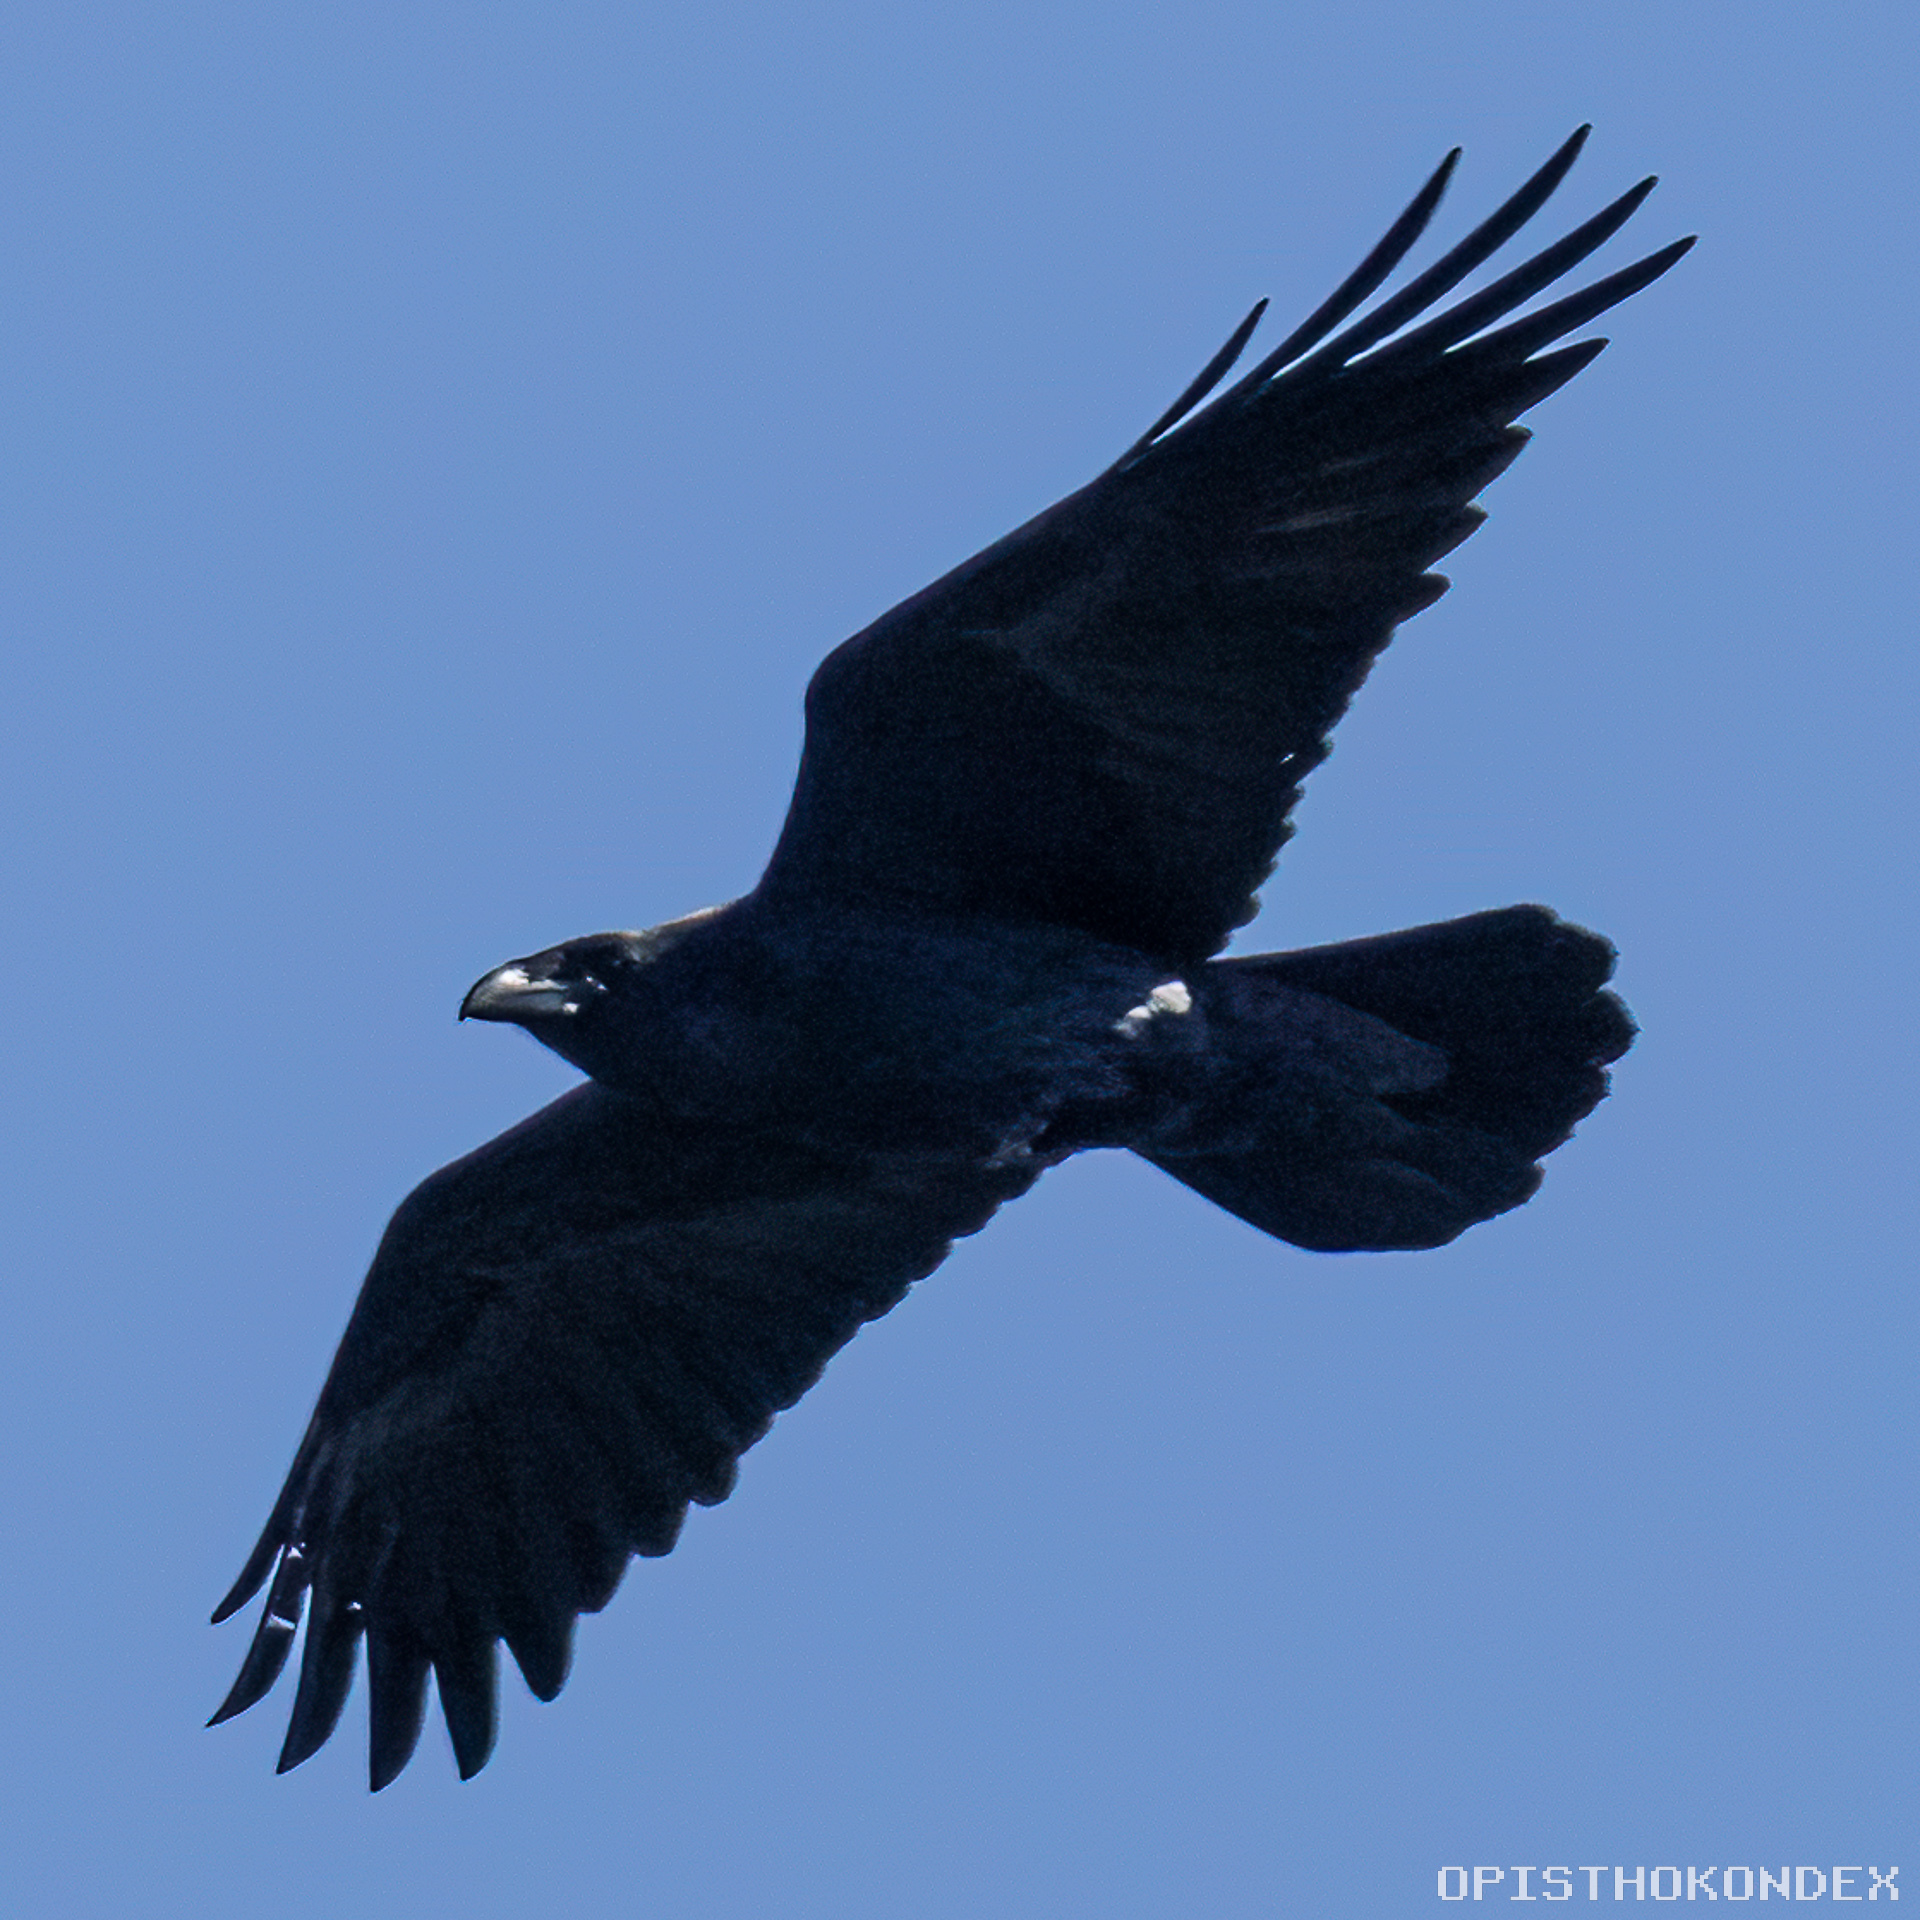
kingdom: Animalia
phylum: Chordata
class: Aves
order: Passeriformes
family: Corvidae
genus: Corvus
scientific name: Corvus cryptoleucus
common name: Chihuahuan raven
